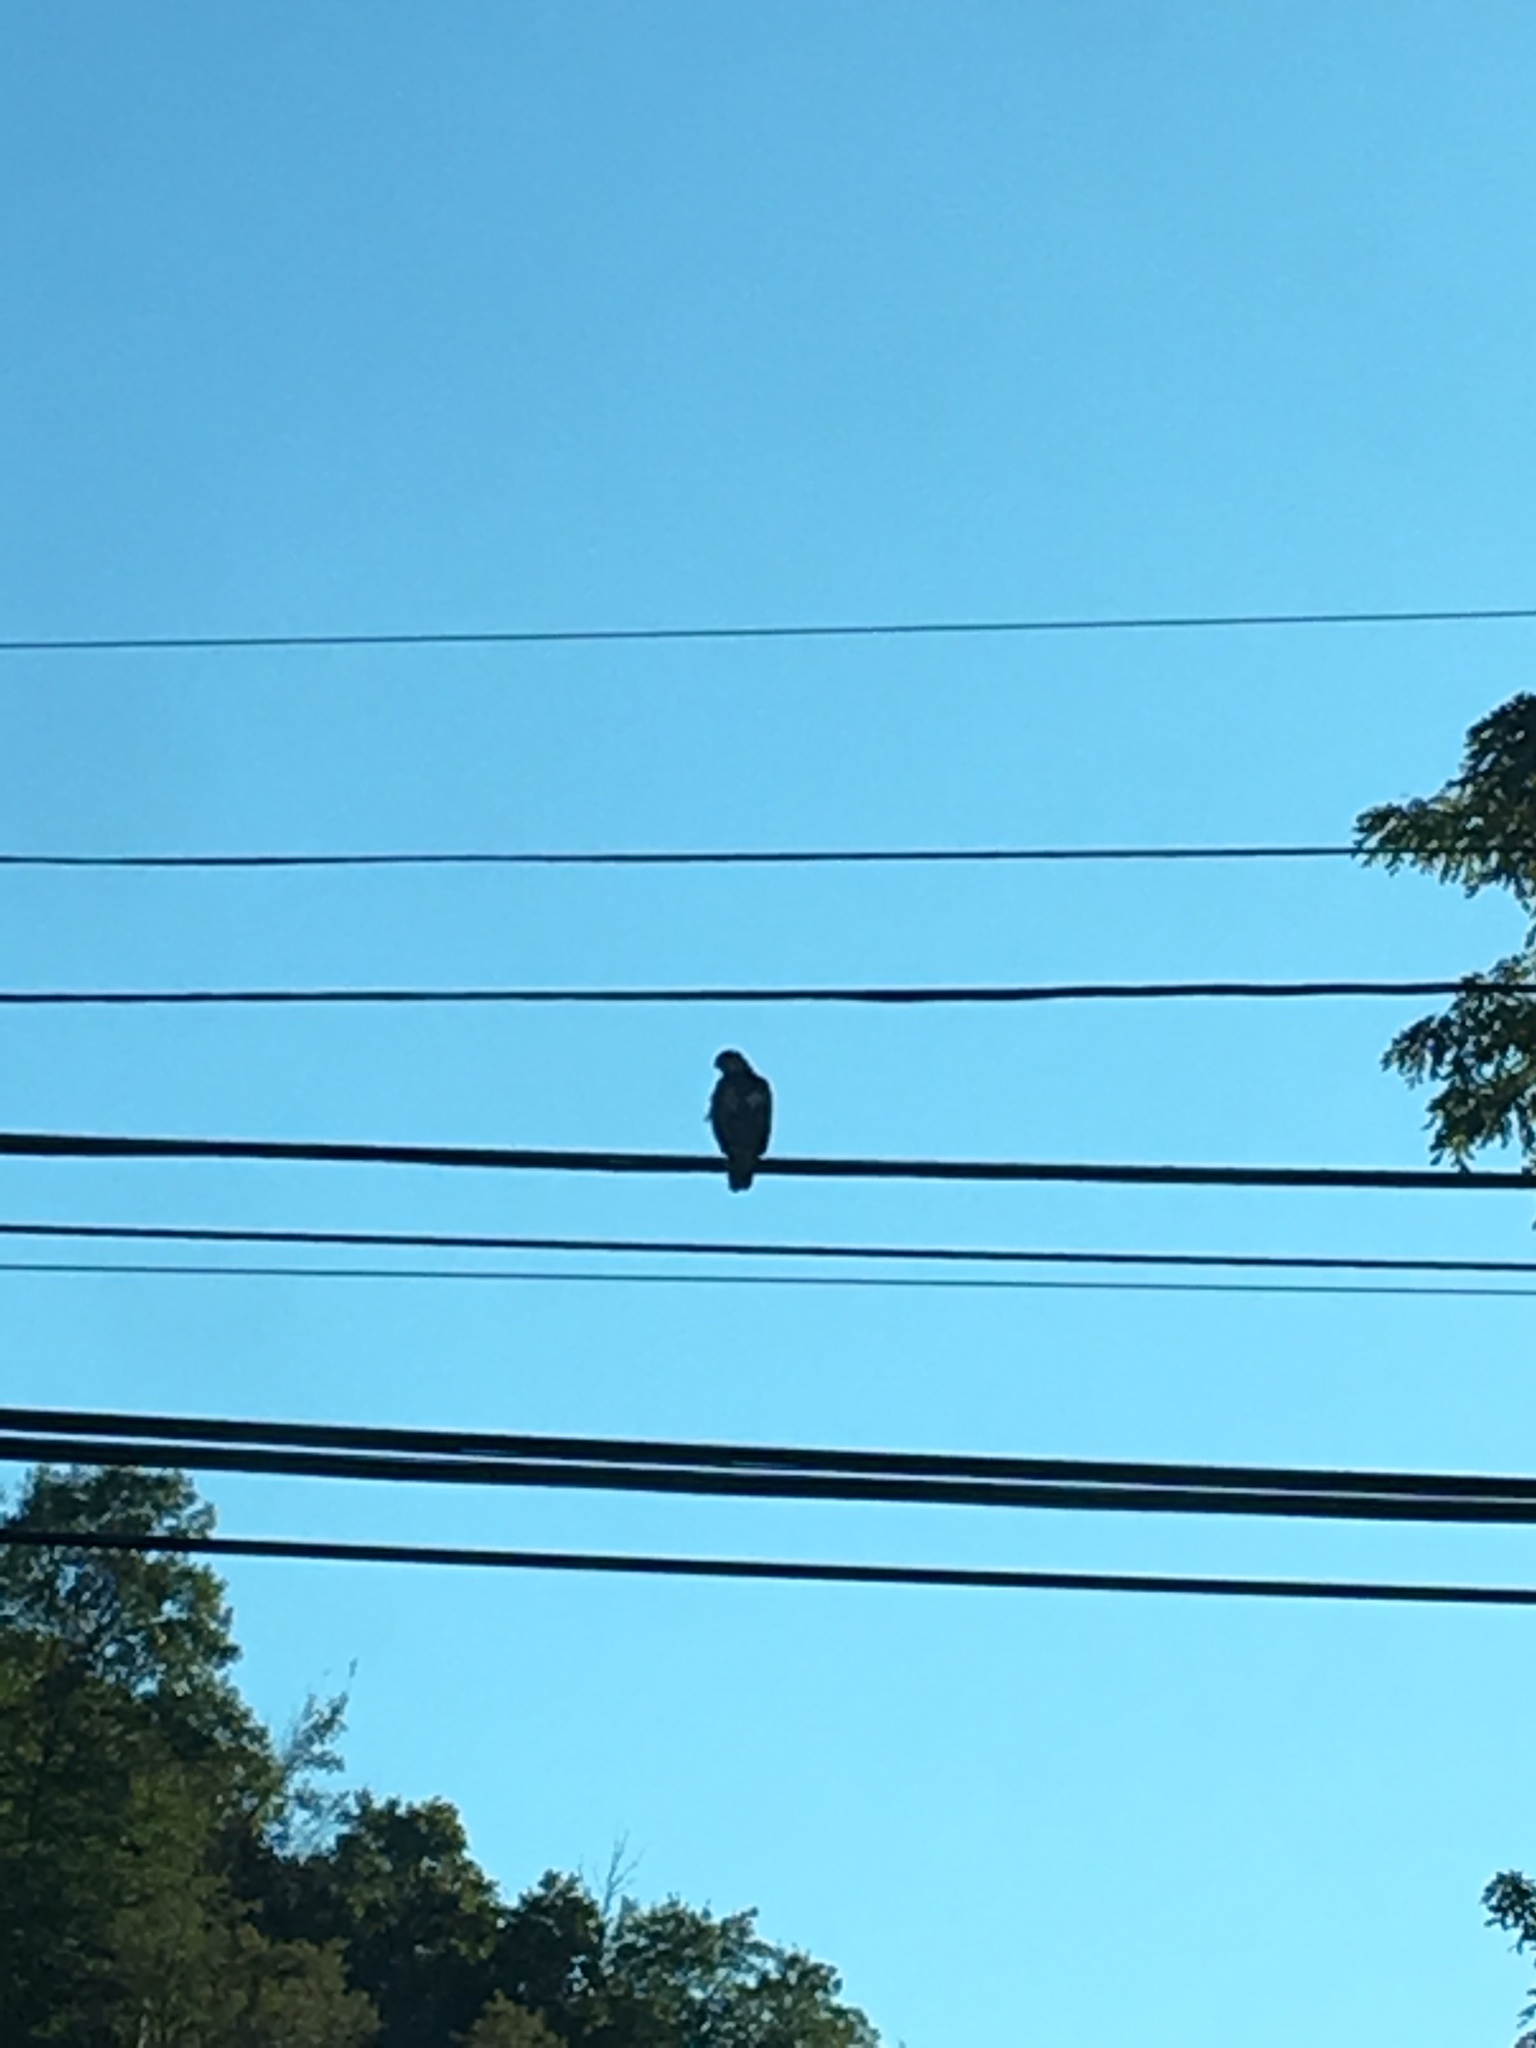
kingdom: Animalia
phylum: Chordata
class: Aves
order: Accipitriformes
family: Accipitridae
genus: Buteo
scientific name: Buteo
